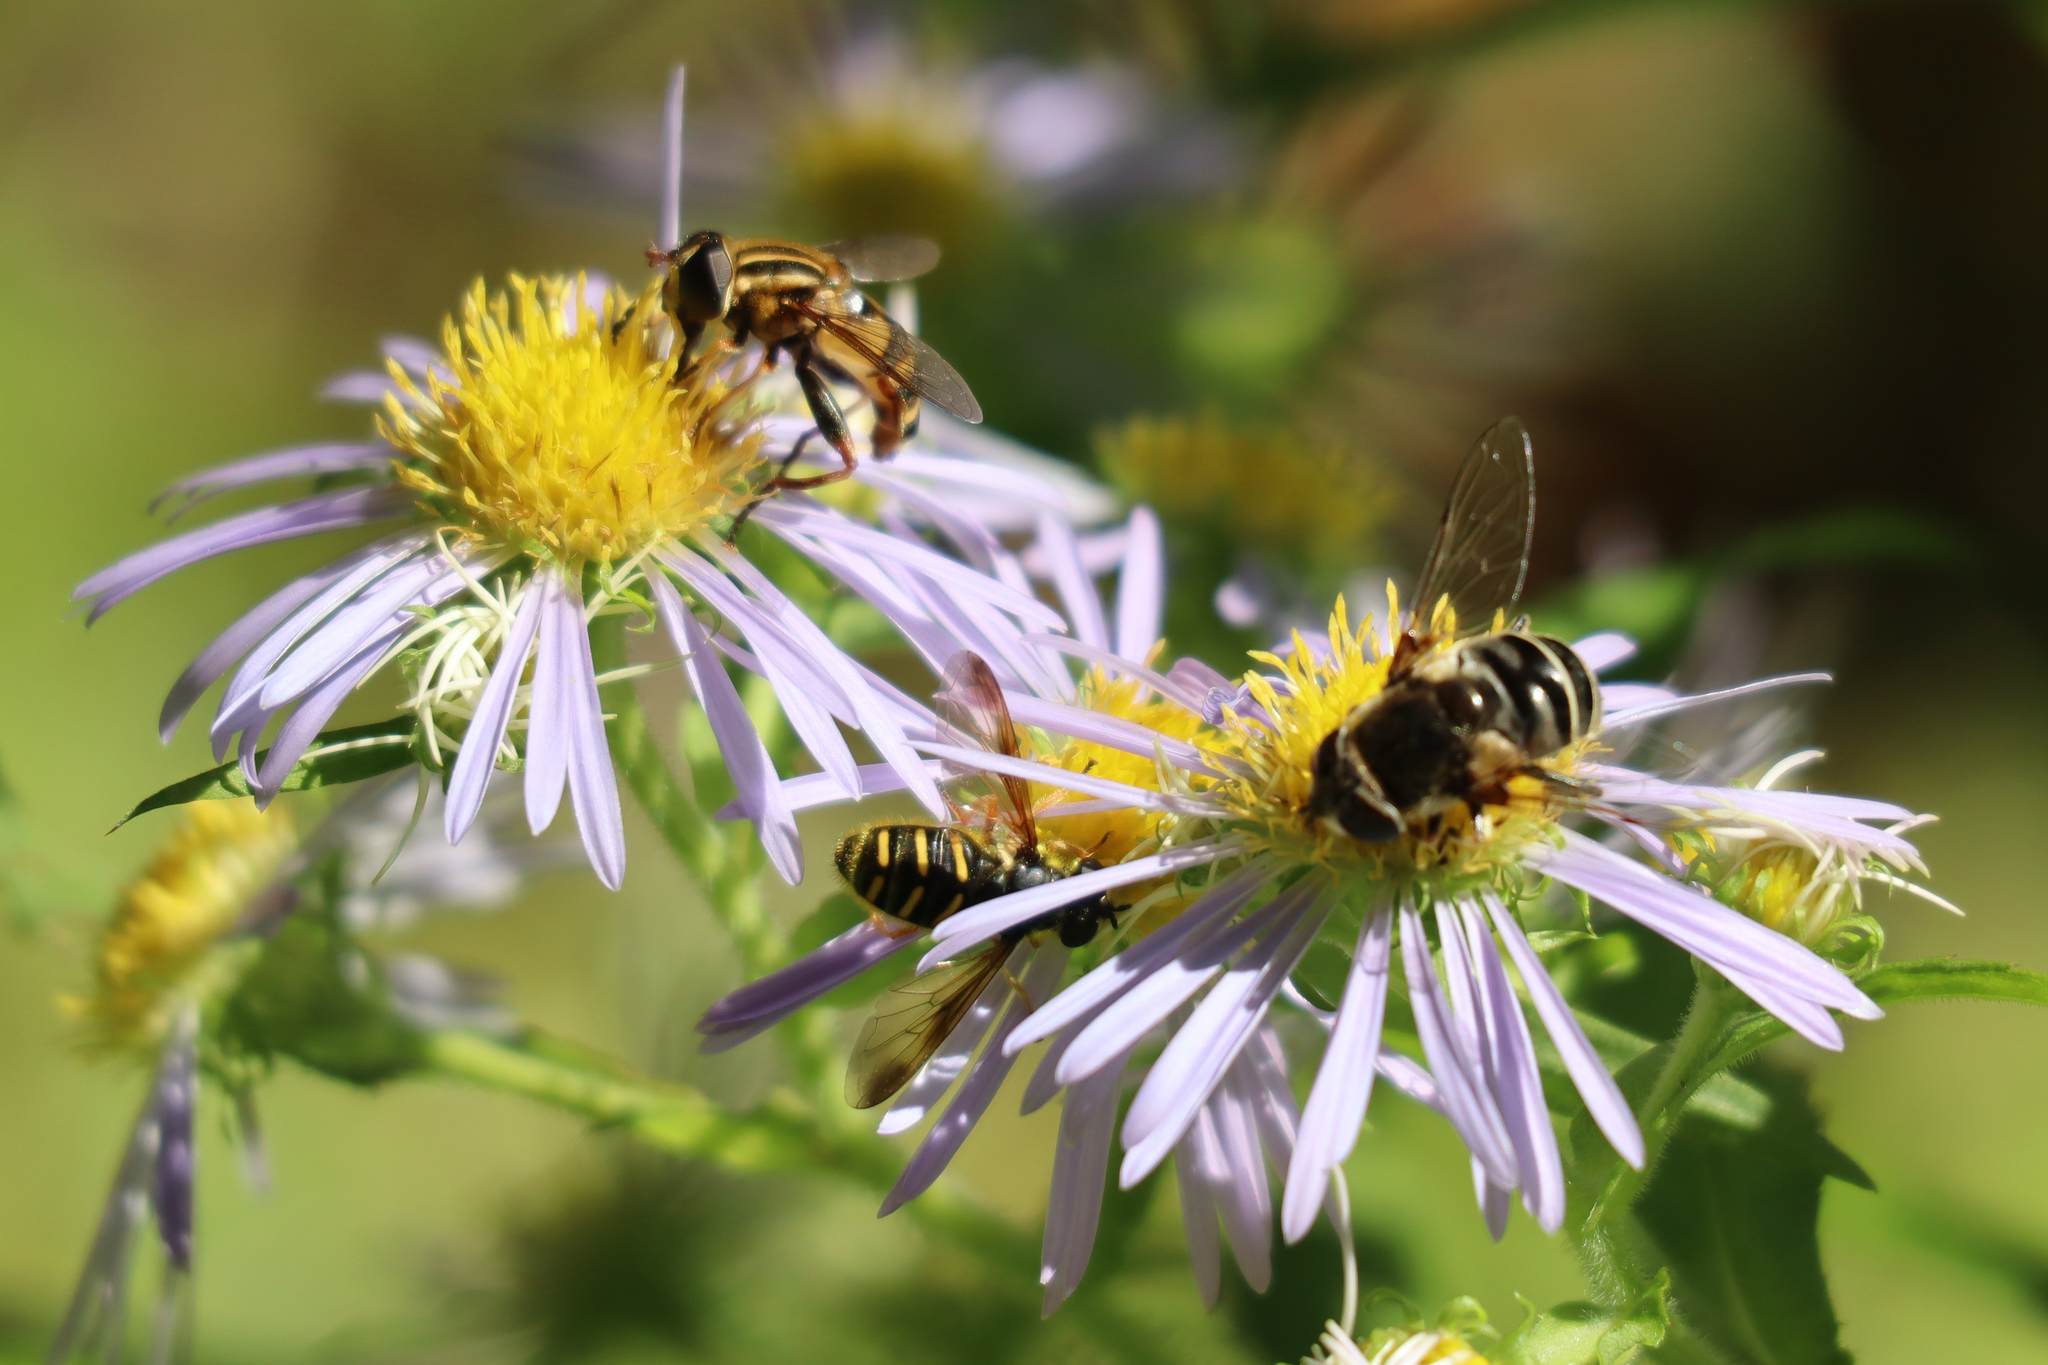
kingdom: Animalia
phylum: Arthropoda
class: Insecta
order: Diptera
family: Syrphidae
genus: Eristalis
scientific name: Eristalis dimidiata
